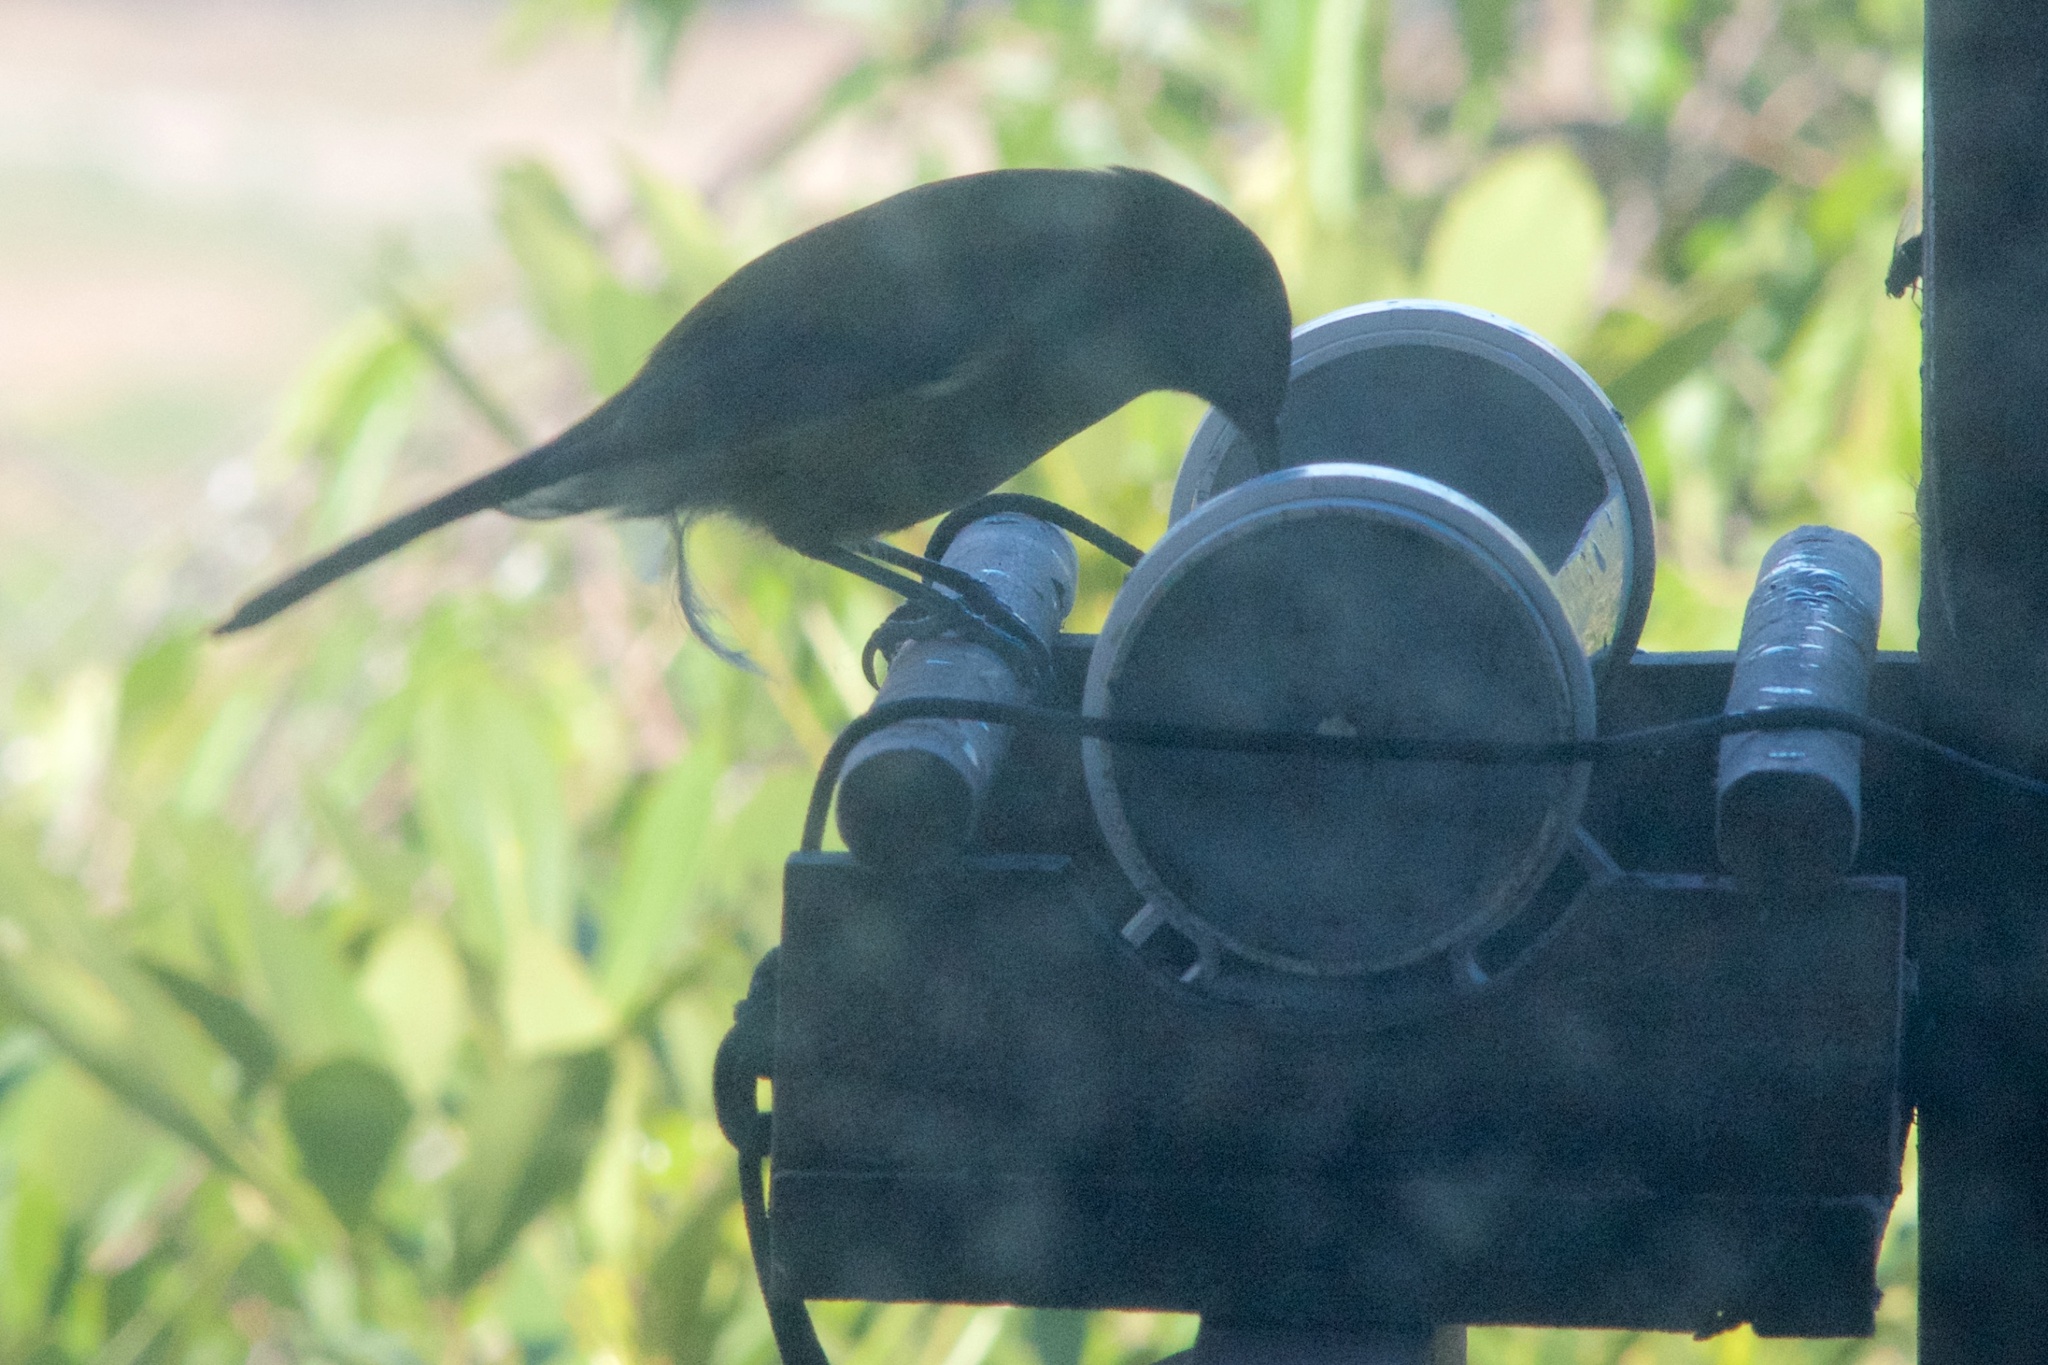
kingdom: Animalia
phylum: Chordata
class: Aves
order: Passeriformes
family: Meliphagidae
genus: Anthornis
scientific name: Anthornis melanura
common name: New zealand bellbird
